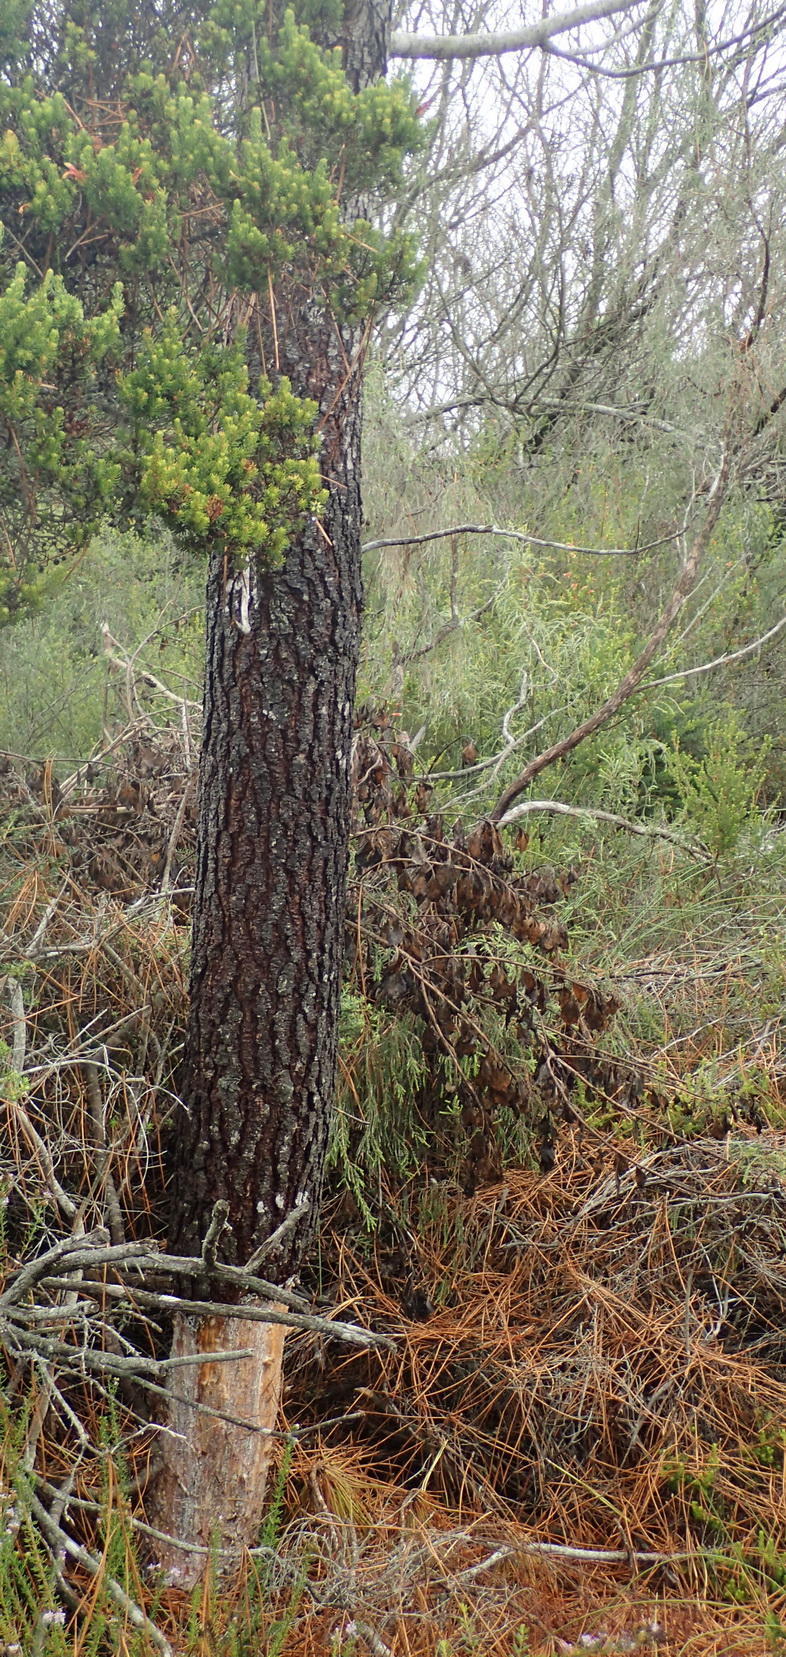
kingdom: Plantae
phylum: Tracheophyta
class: Pinopsida
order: Pinales
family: Pinaceae
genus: Pinus
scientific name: Pinus pinaster
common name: Maritime pine
